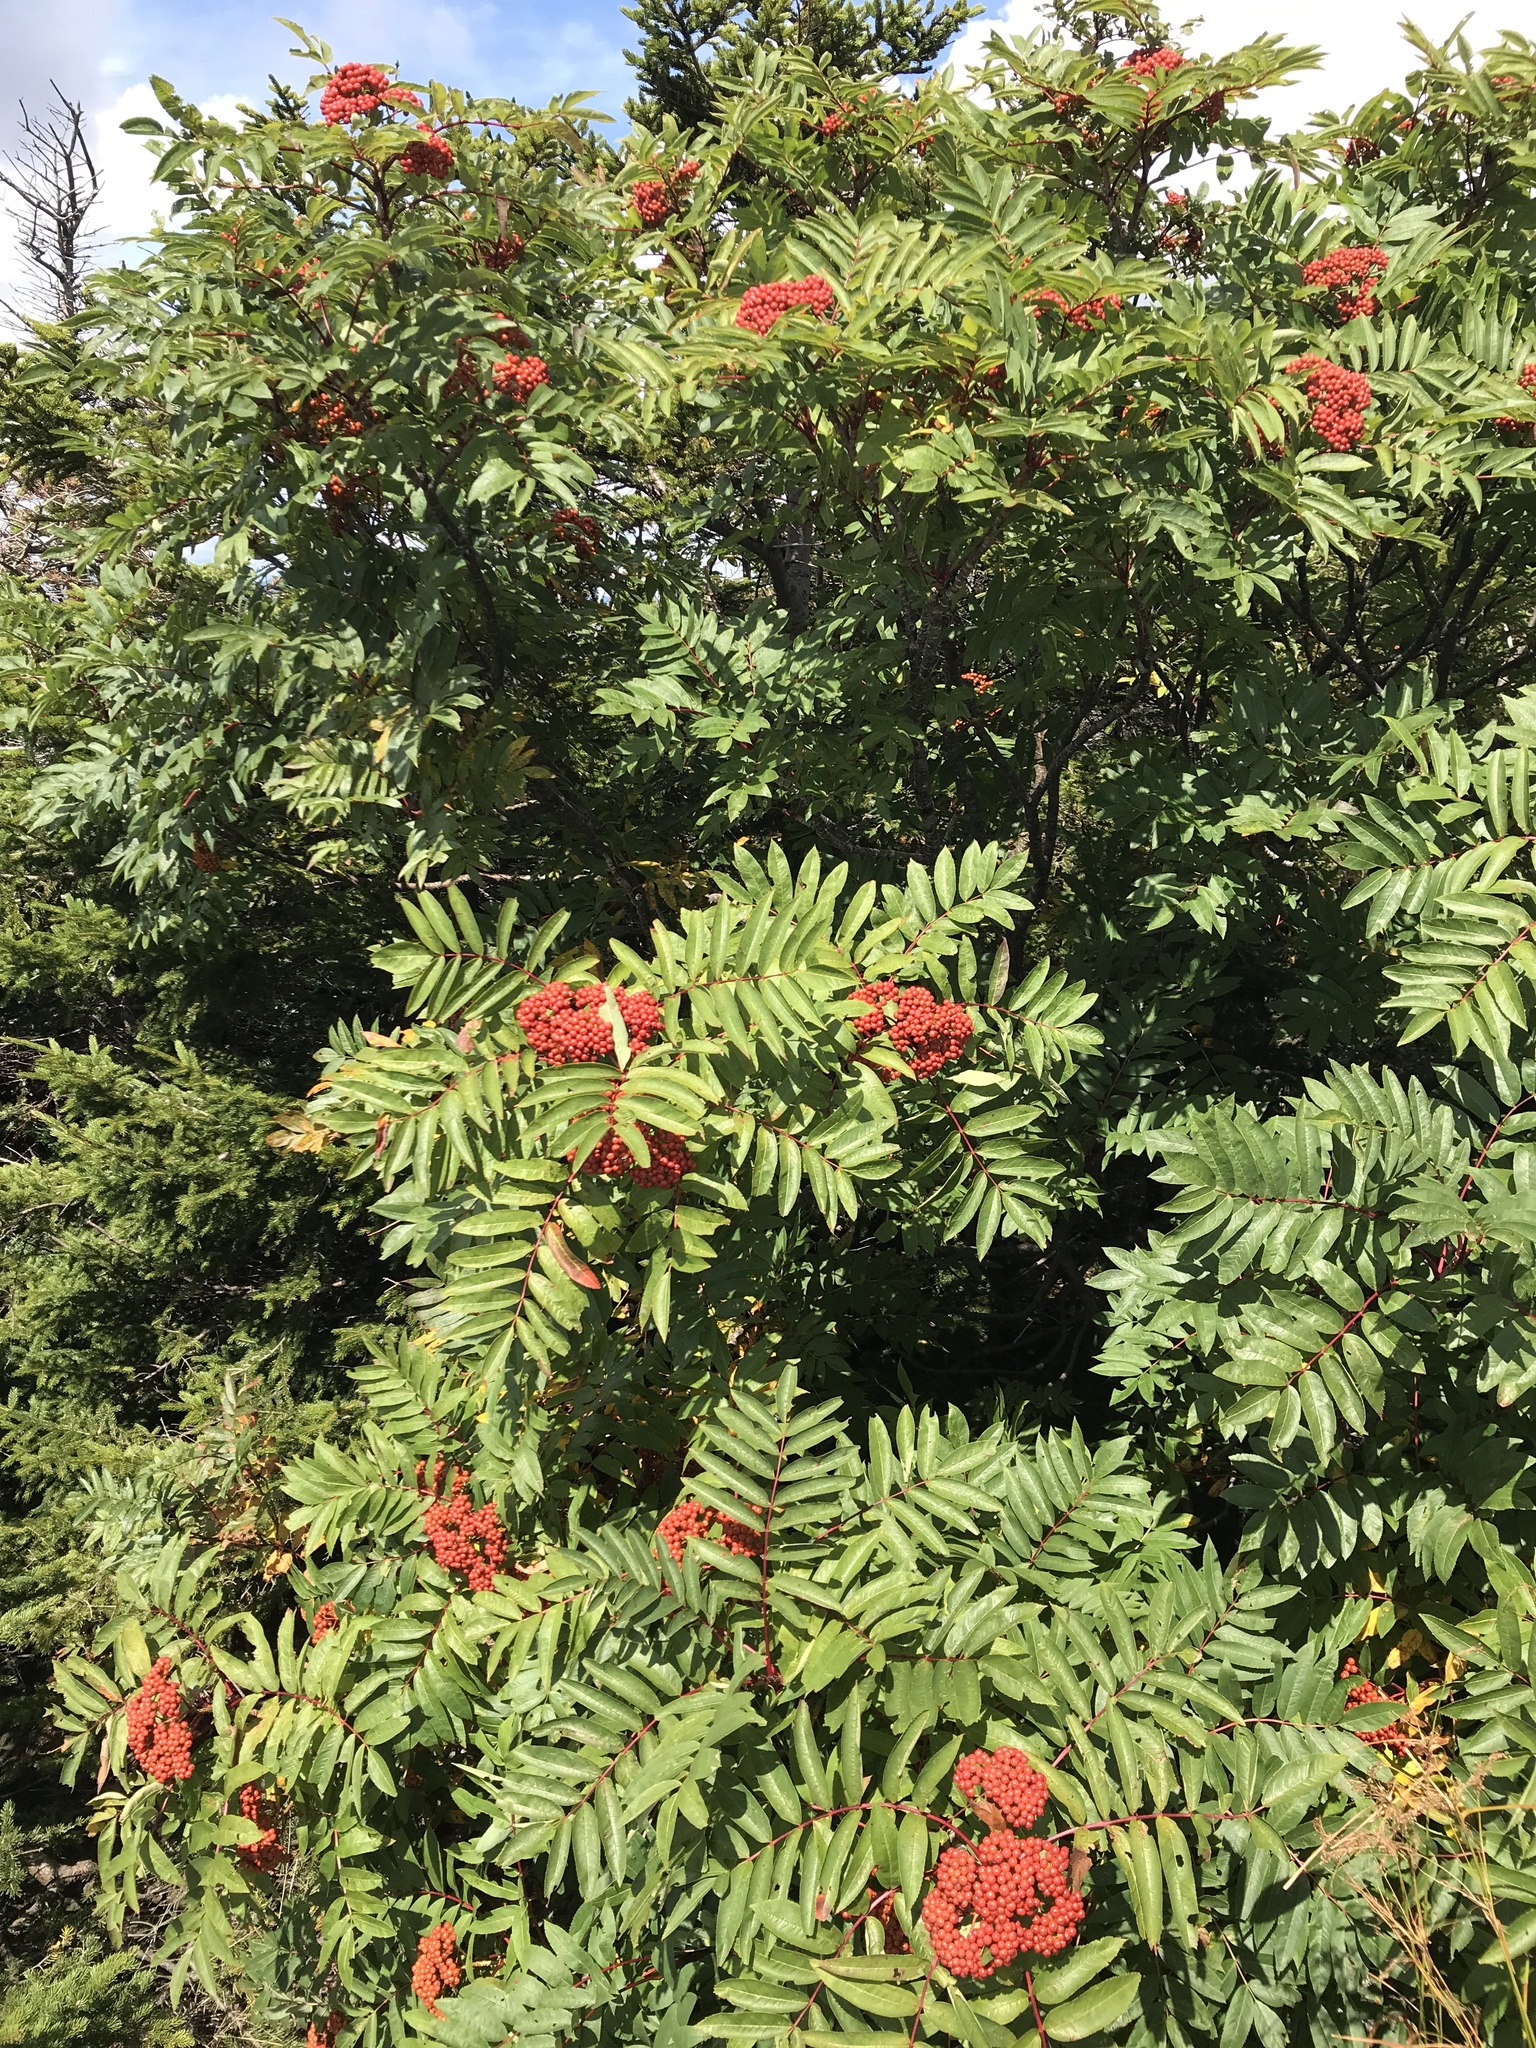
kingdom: Plantae
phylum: Tracheophyta
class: Magnoliopsida
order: Rosales
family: Rosaceae
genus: Sorbus
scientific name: Sorbus americana
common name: American mountain-ash
